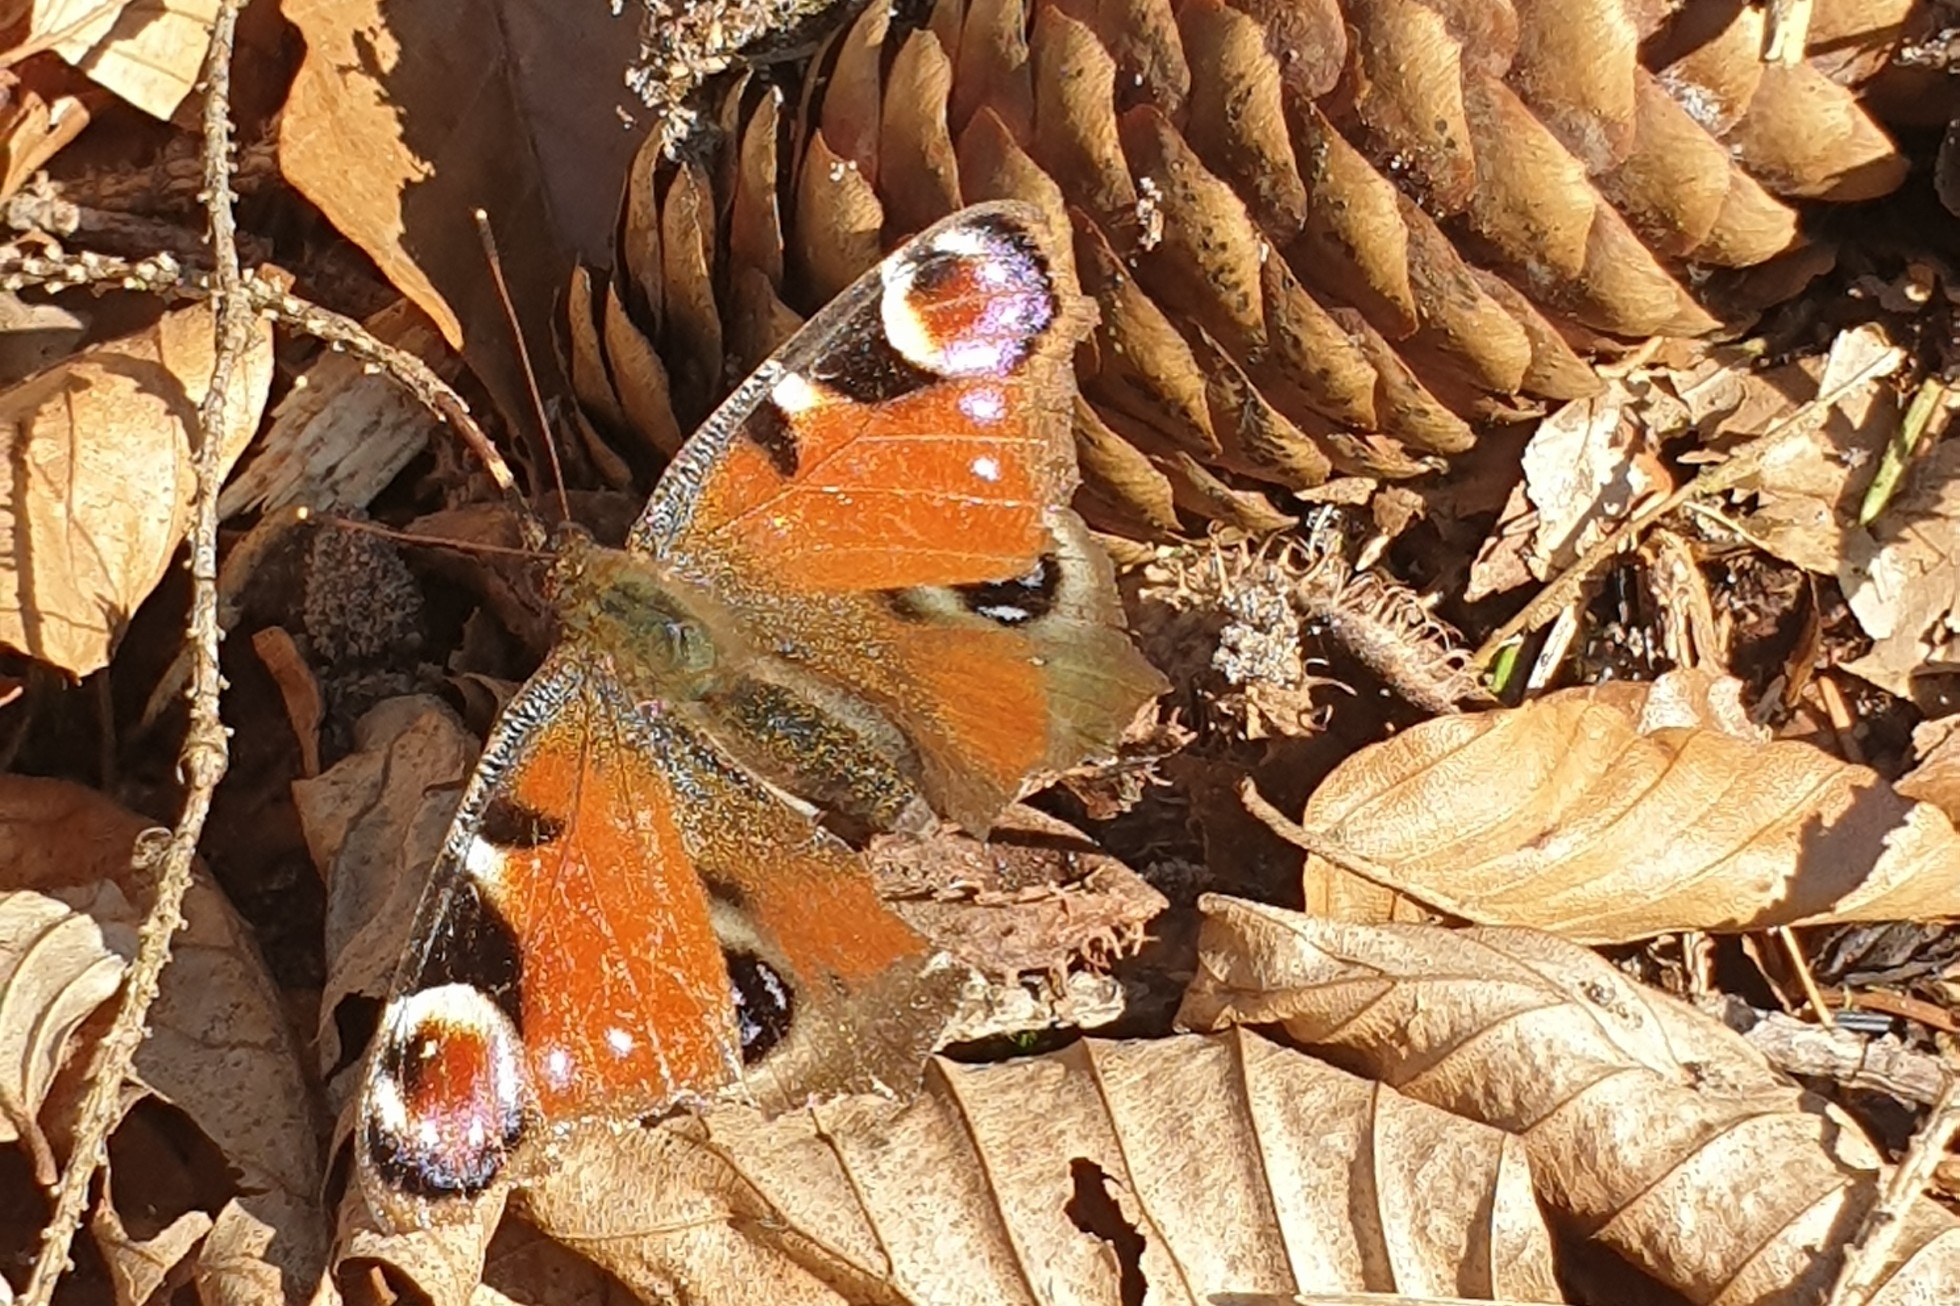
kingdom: Animalia
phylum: Arthropoda
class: Insecta
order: Lepidoptera
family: Nymphalidae
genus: Aglais
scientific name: Aglais io
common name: Peacock
